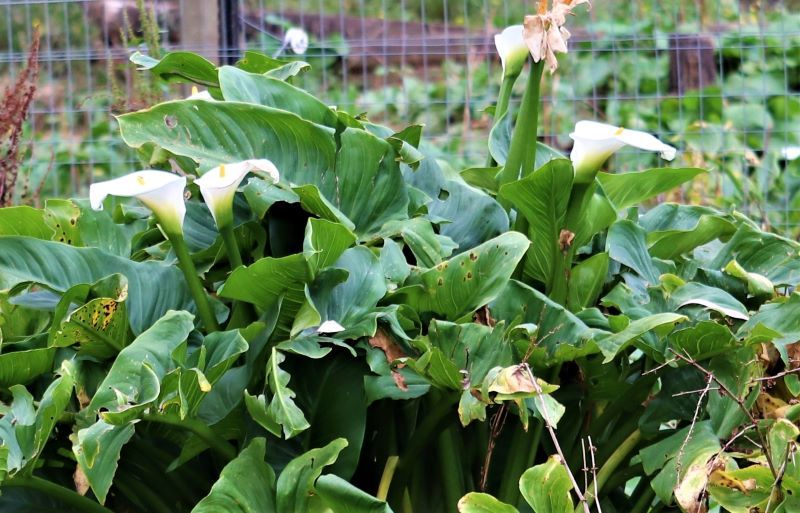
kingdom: Plantae
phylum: Tracheophyta
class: Liliopsida
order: Alismatales
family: Araceae
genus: Zantedeschia
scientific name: Zantedeschia aethiopica
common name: Altar-lily
